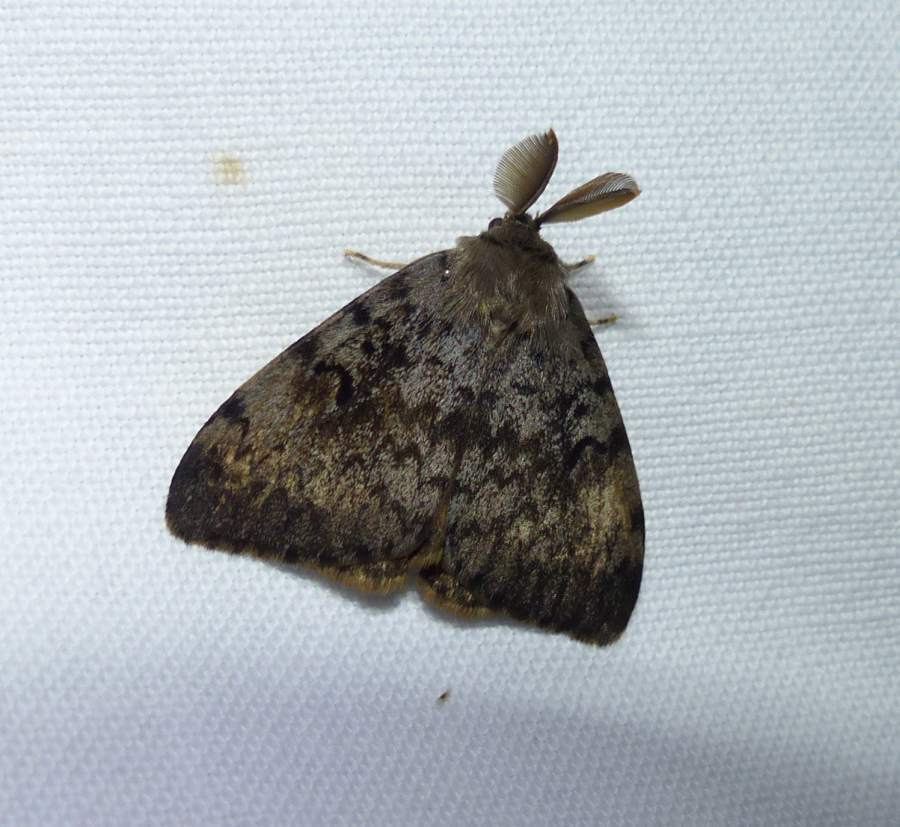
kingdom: Animalia
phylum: Arthropoda
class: Insecta
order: Lepidoptera
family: Erebidae
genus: Lymantria
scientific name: Lymantria dispar
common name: Gypsy moth
